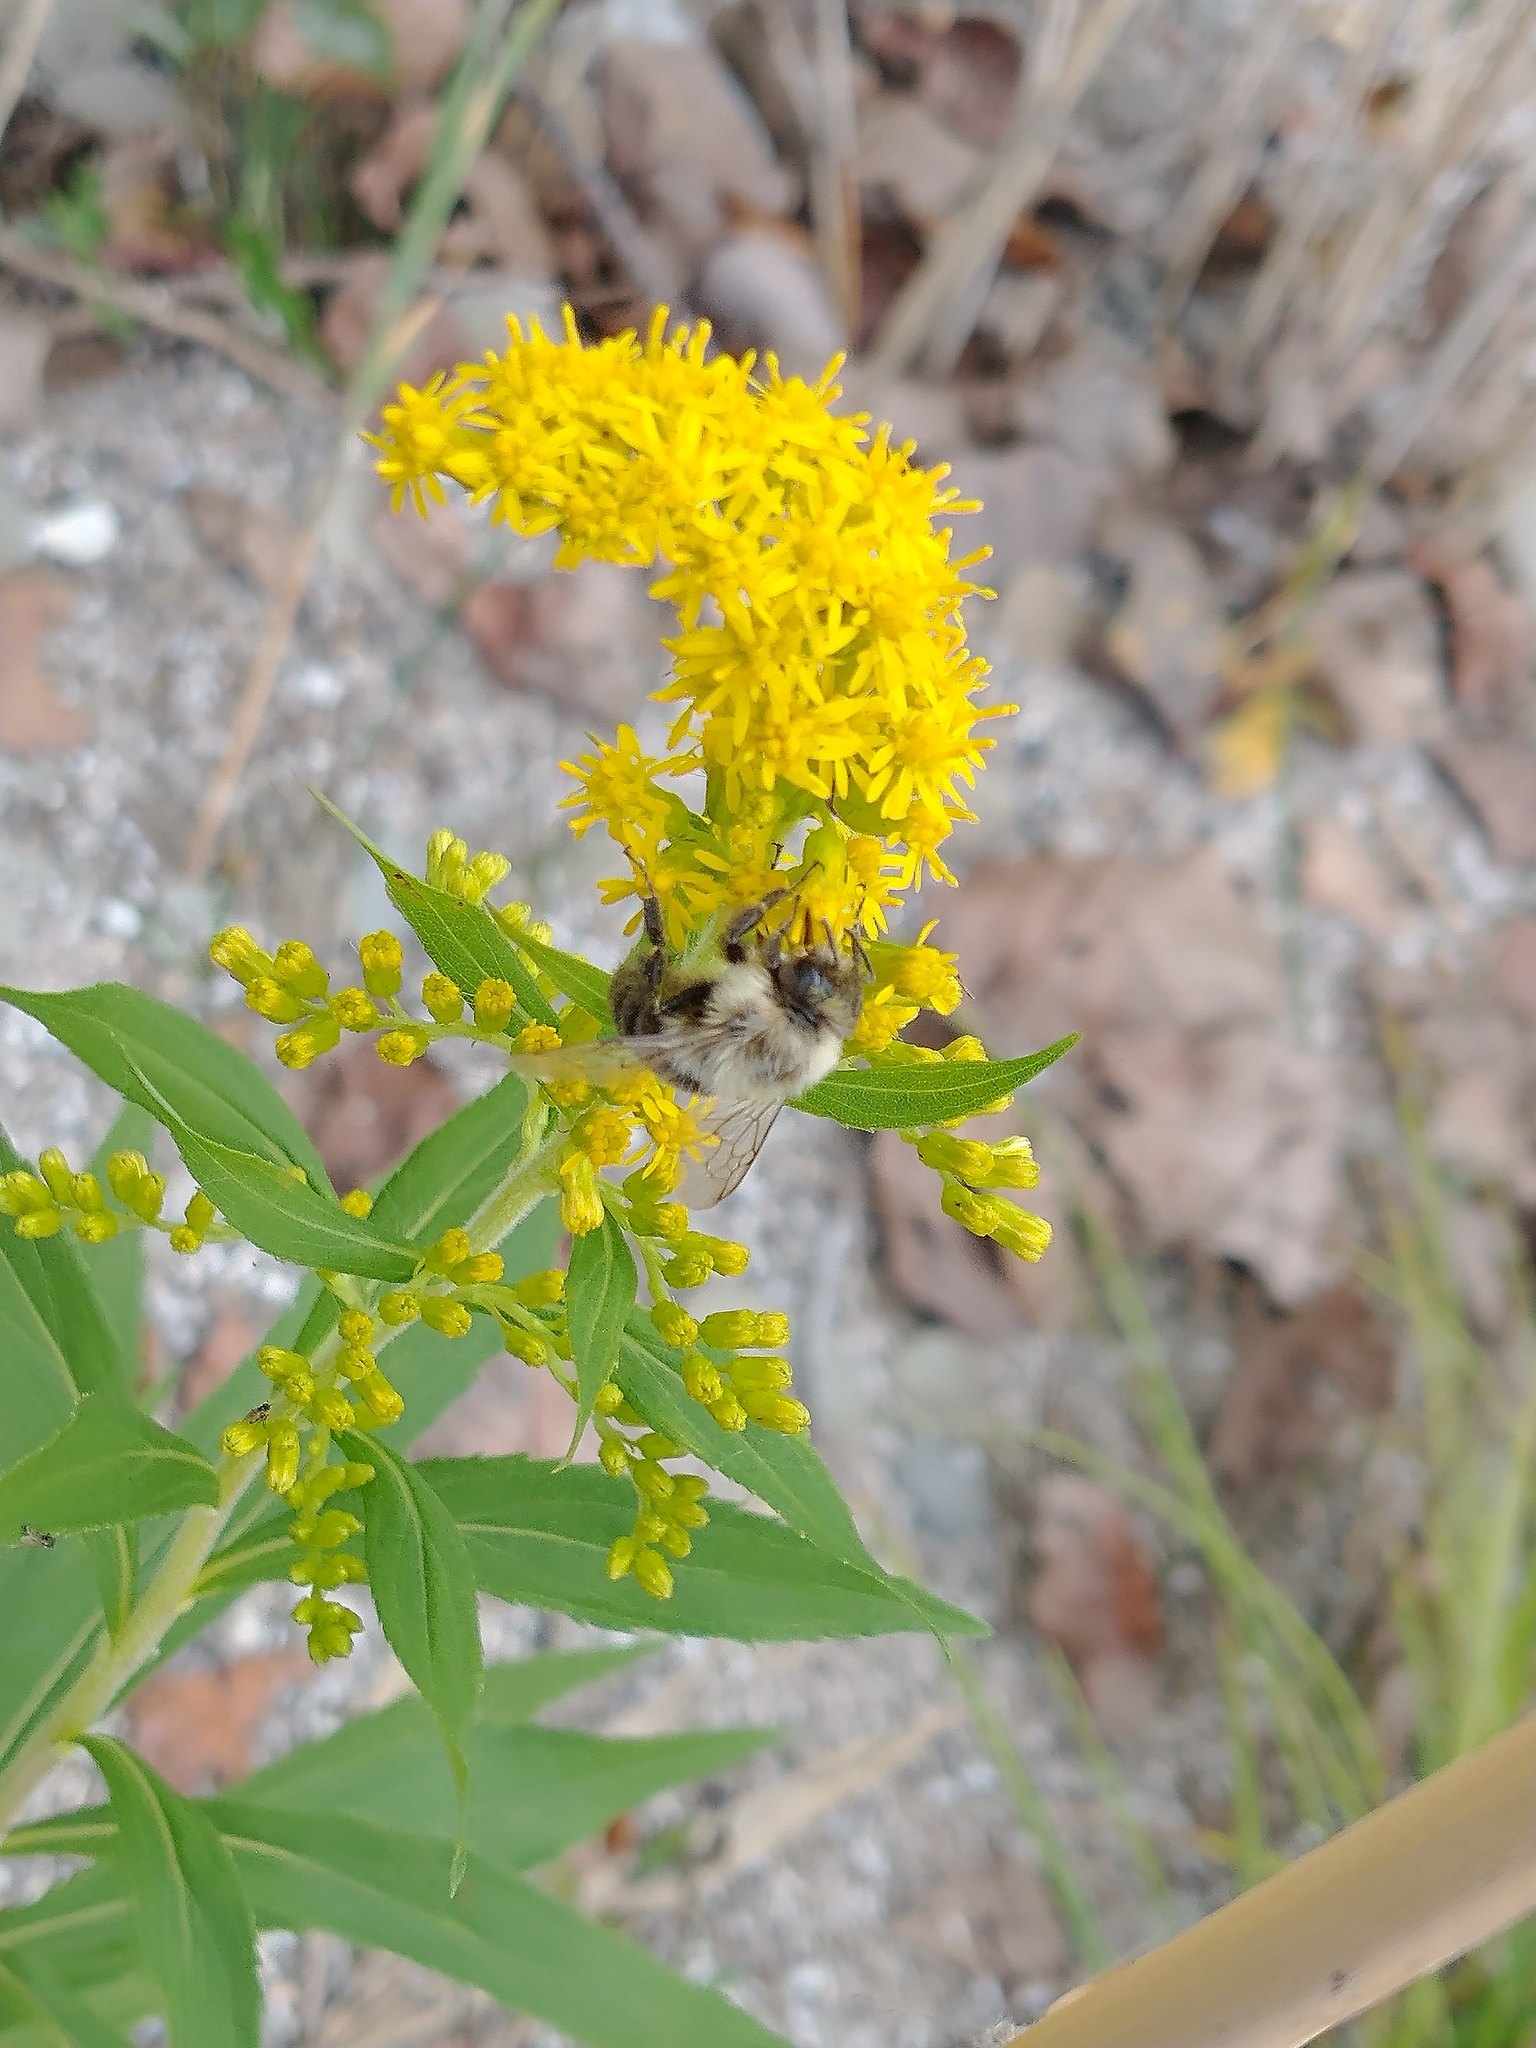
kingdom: Animalia
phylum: Arthropoda
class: Insecta
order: Hymenoptera
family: Apidae
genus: Bombus
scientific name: Bombus impatiens
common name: Common eastern bumble bee
